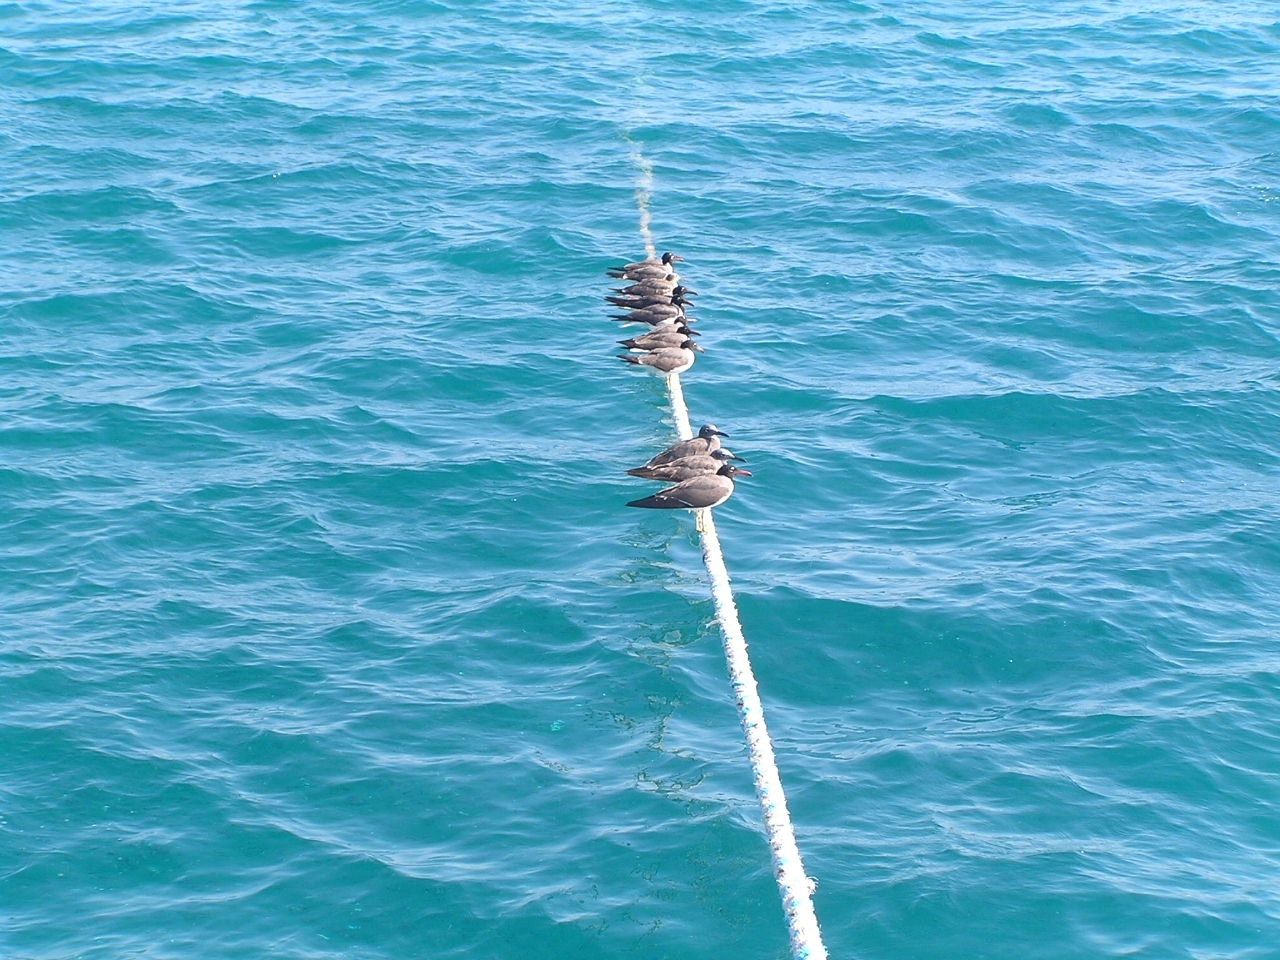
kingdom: Animalia
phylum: Chordata
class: Aves
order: Charadriiformes
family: Laridae
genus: Ichthyaetus
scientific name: Ichthyaetus leucophthalmus
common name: White-eyed gull
